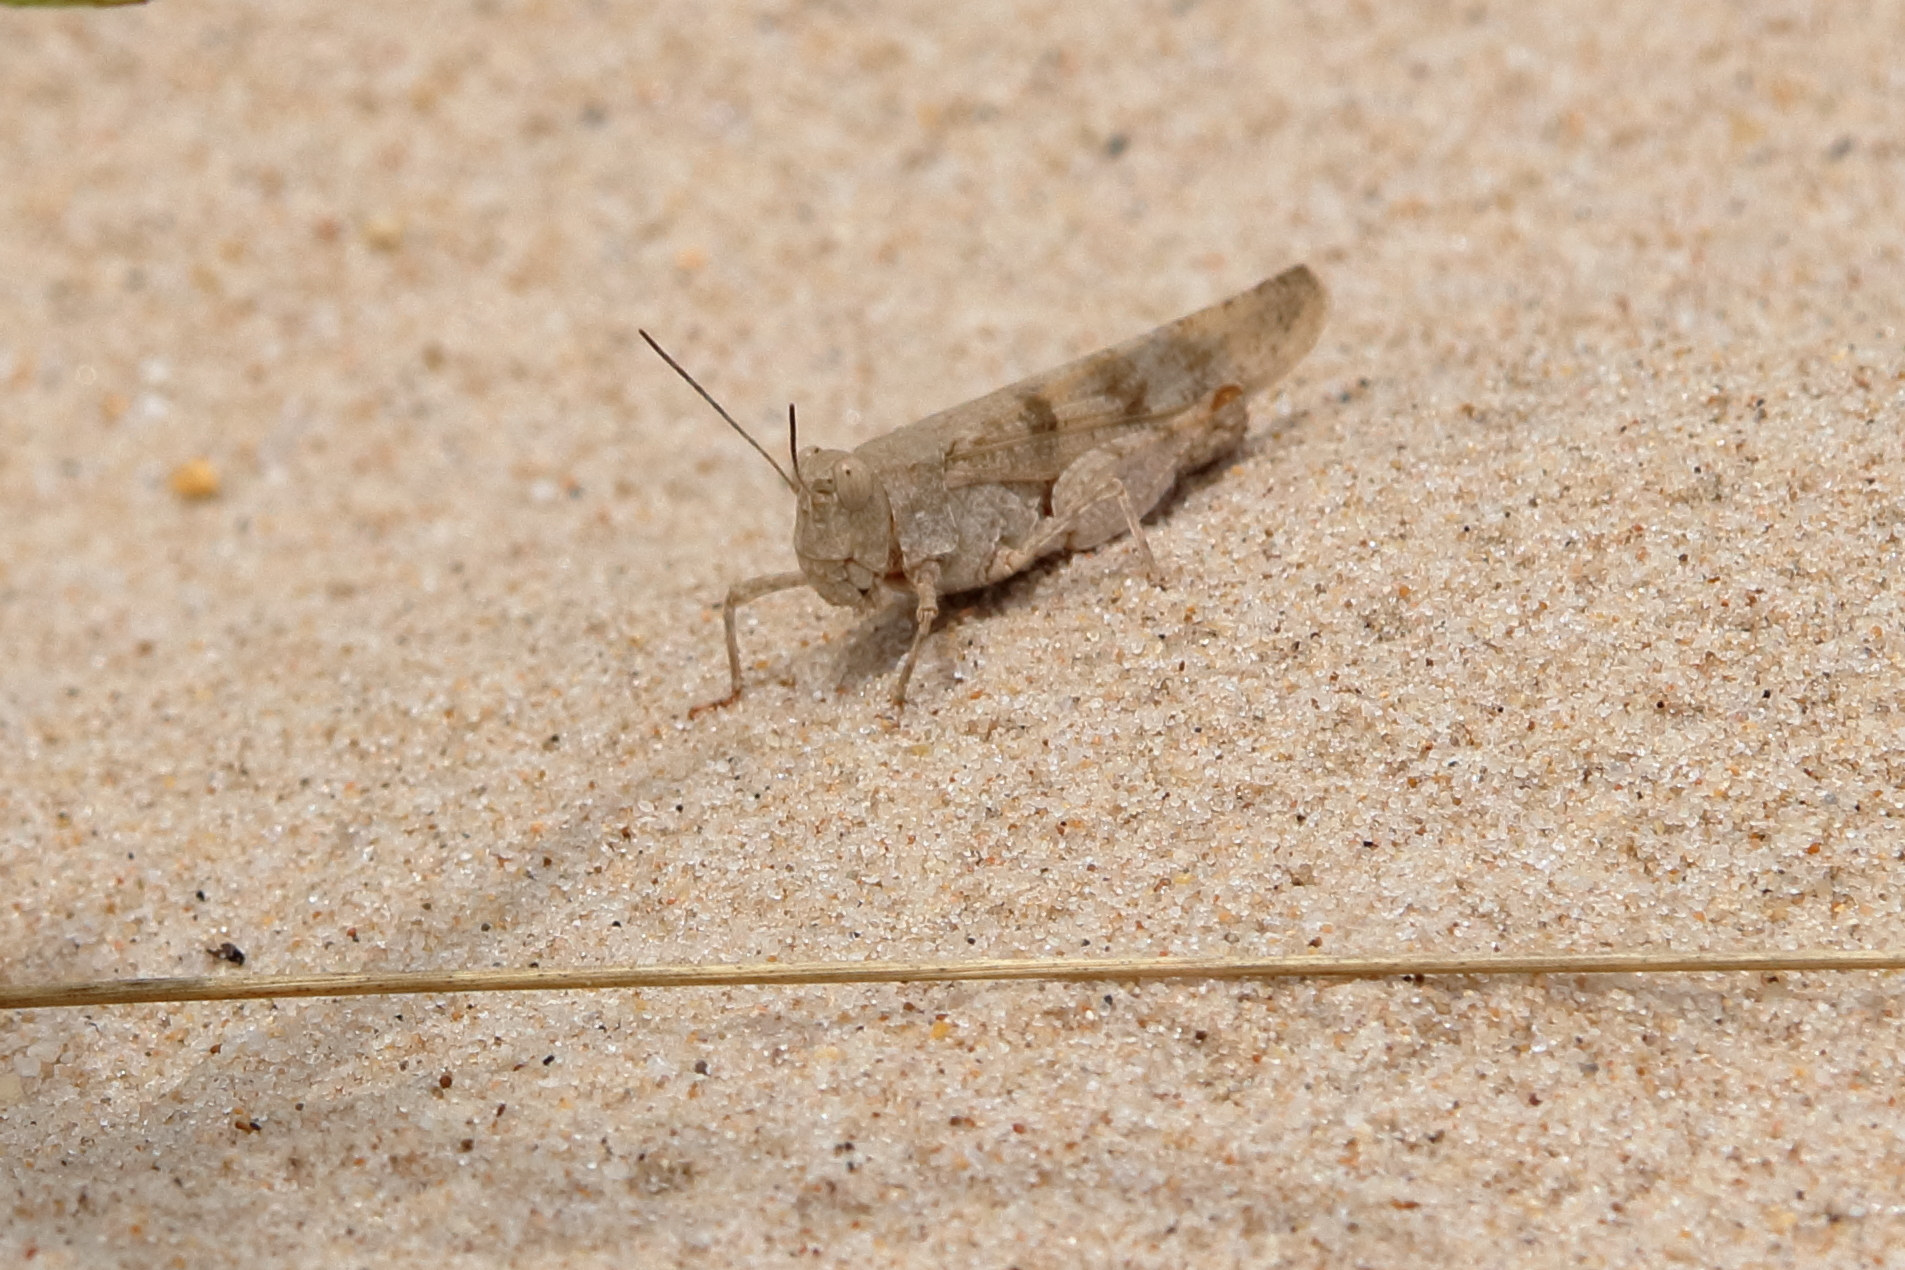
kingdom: Animalia
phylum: Arthropoda
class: Insecta
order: Orthoptera
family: Acrididae
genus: Trimerotropis
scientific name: Trimerotropis maritima
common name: Seaside locust
